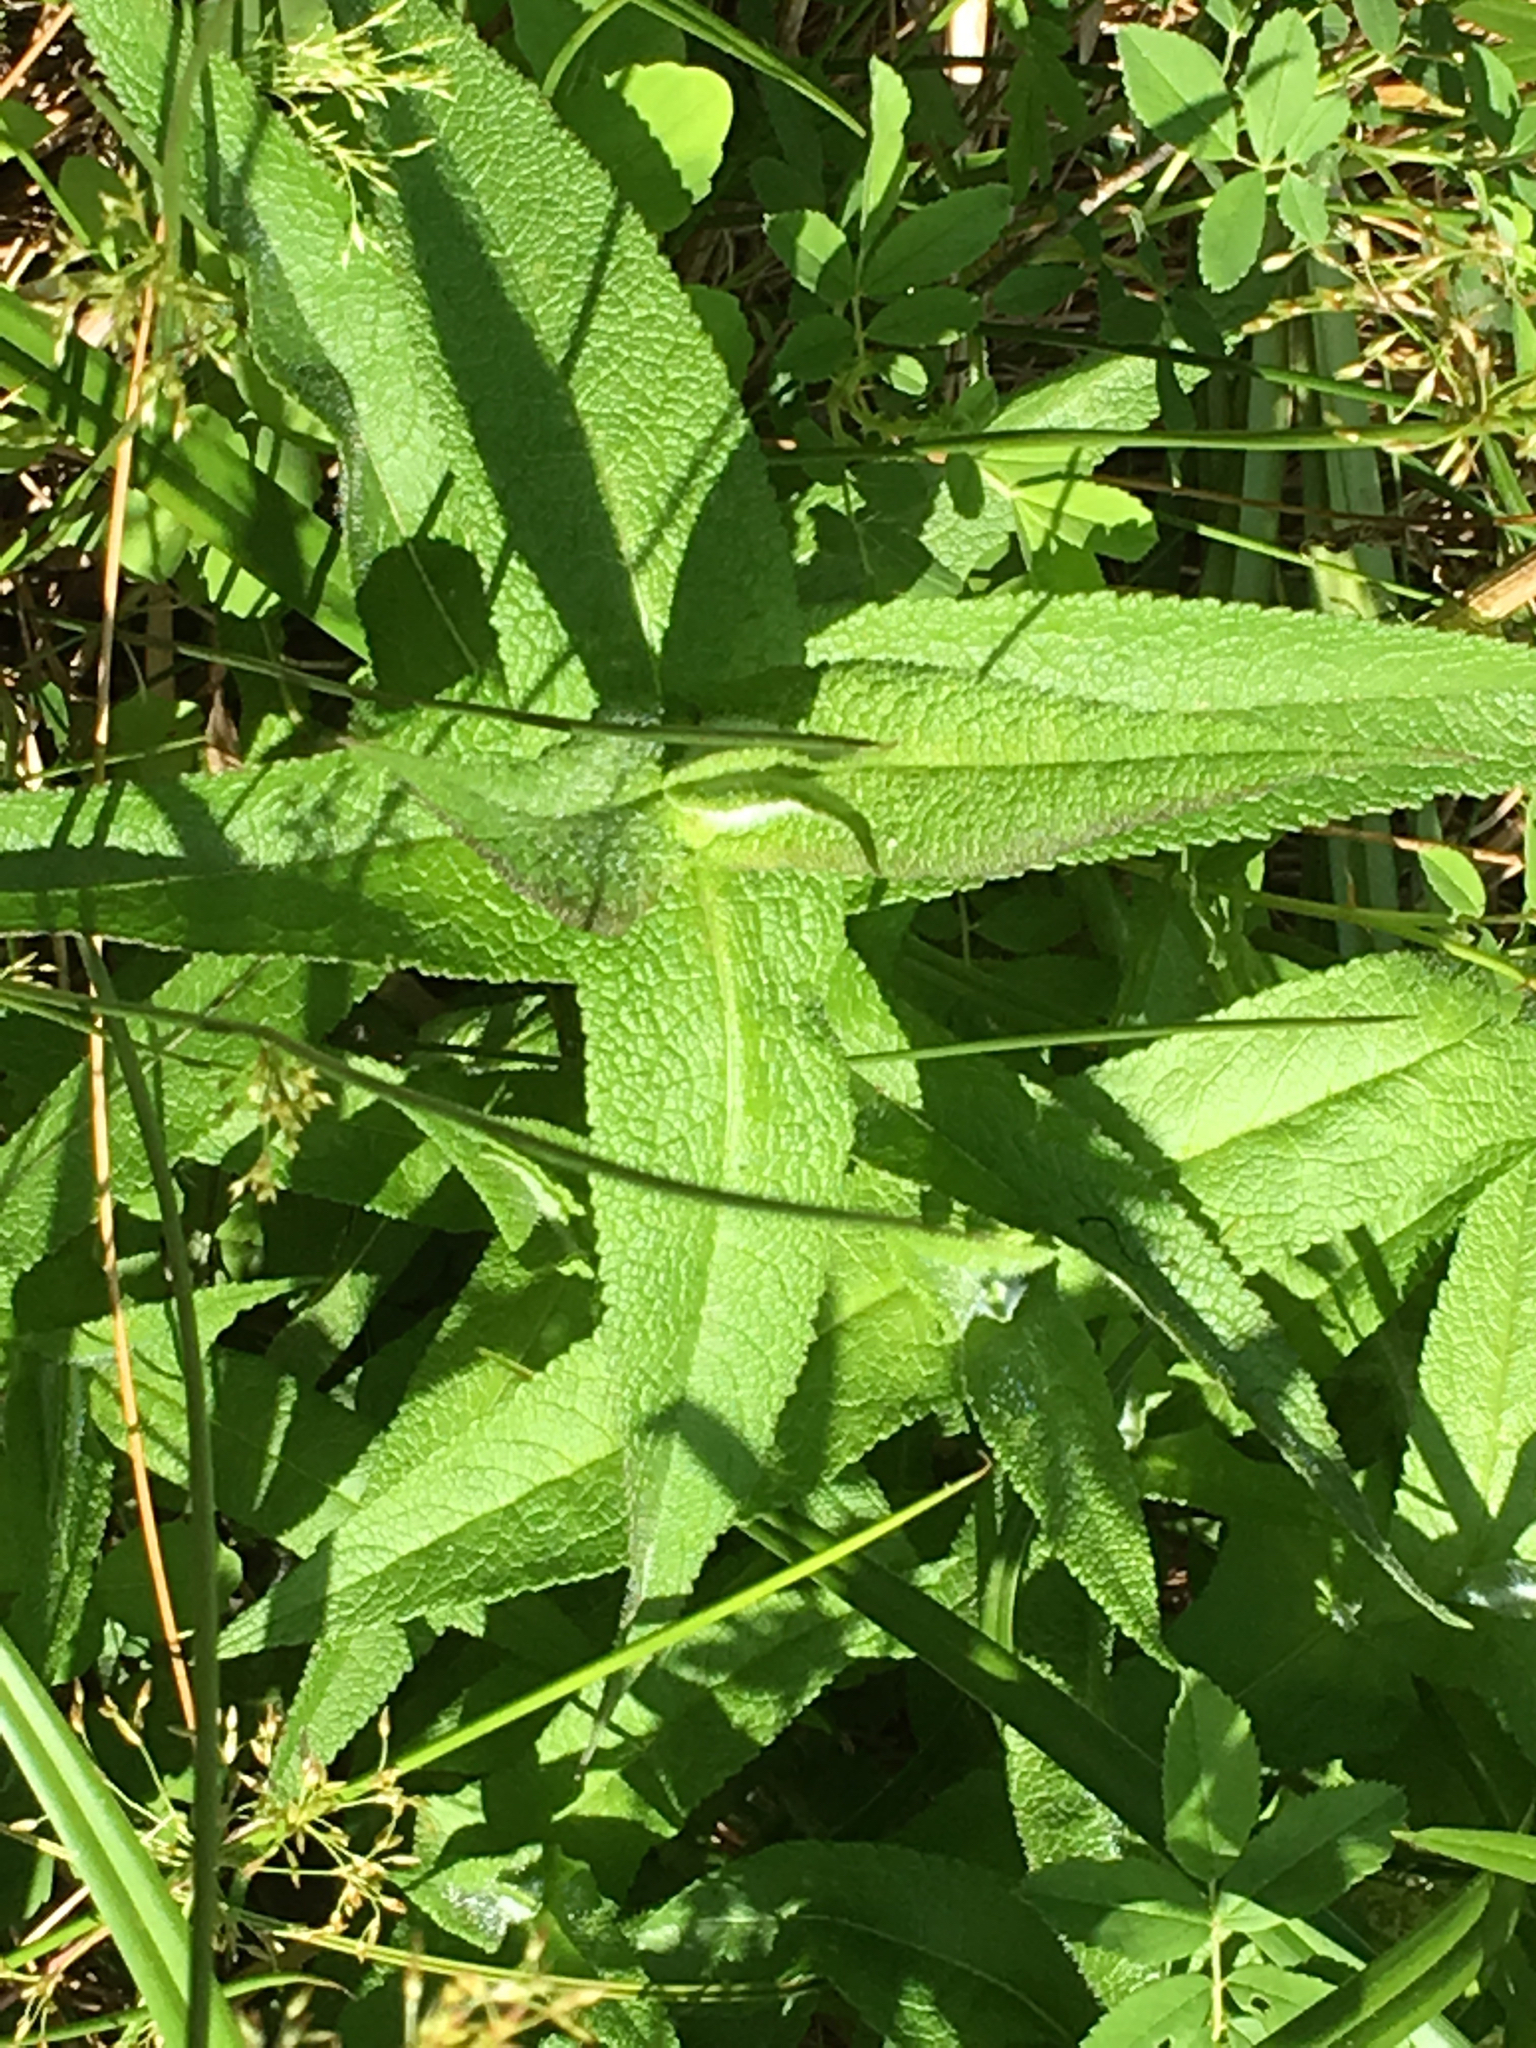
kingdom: Plantae
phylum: Tracheophyta
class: Magnoliopsida
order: Asterales
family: Asteraceae
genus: Eupatorium
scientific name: Eupatorium perfoliatum
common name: Boneset
